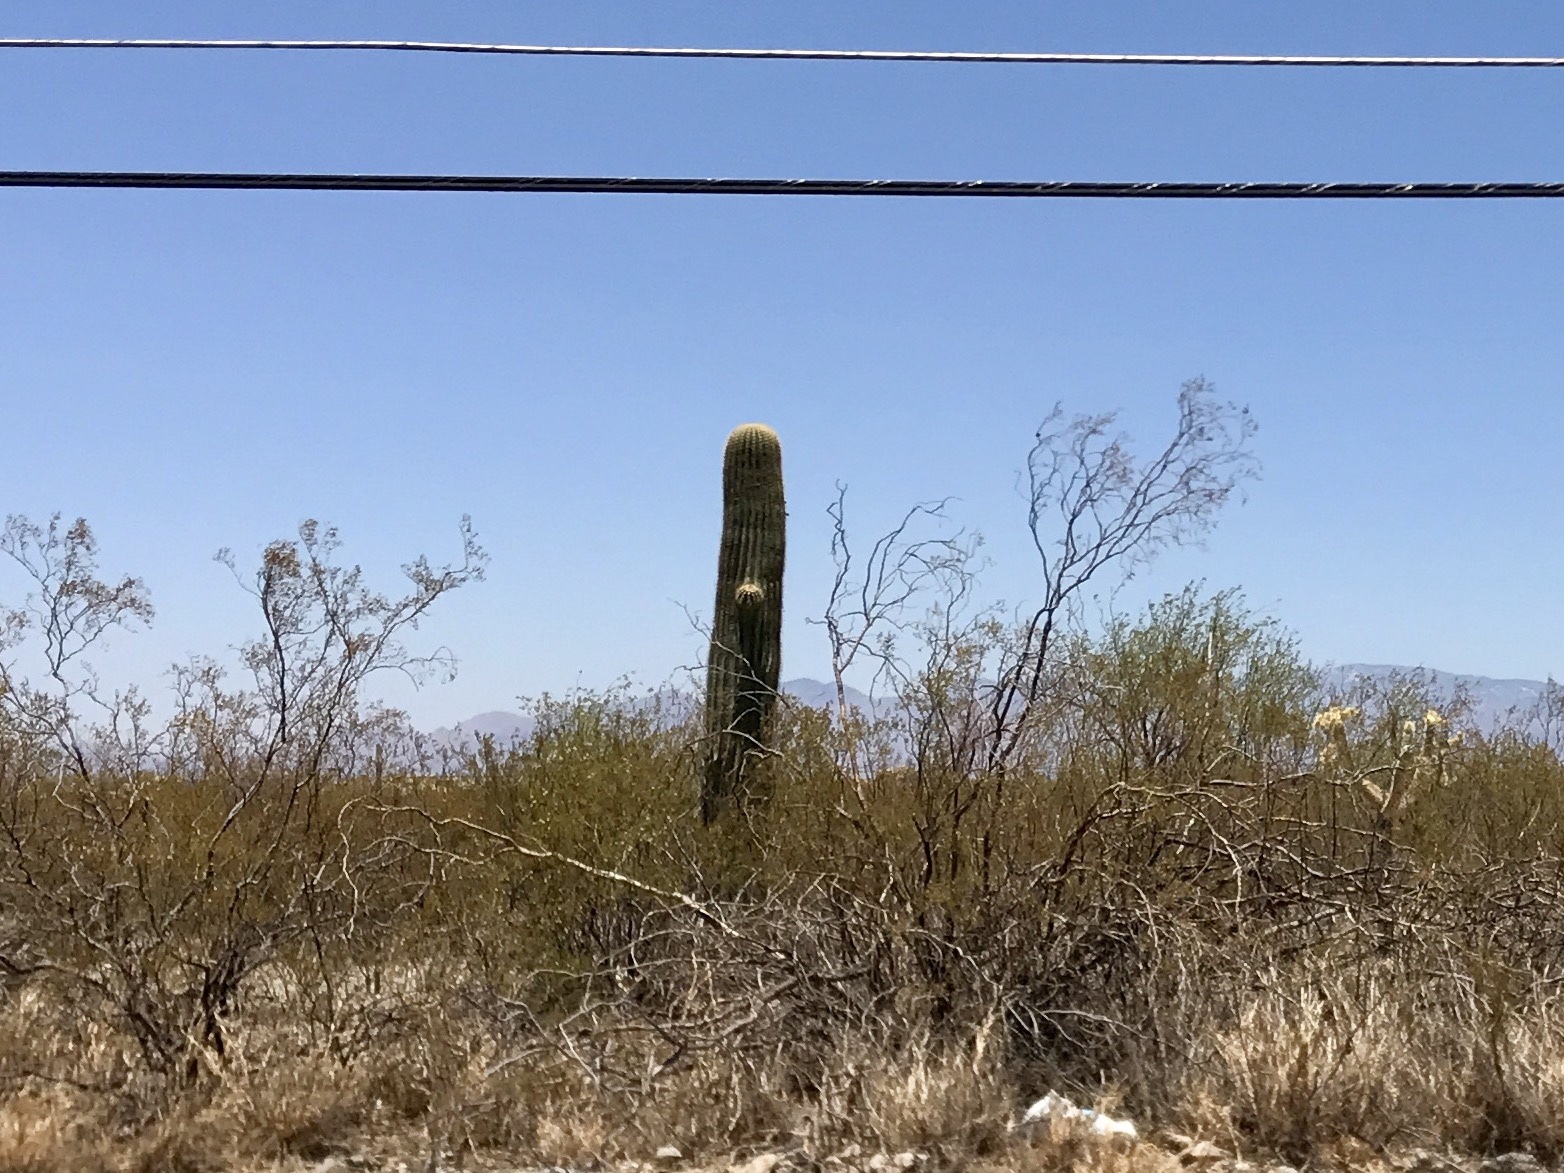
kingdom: Plantae
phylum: Tracheophyta
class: Magnoliopsida
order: Caryophyllales
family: Cactaceae
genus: Carnegiea
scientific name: Carnegiea gigantea
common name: Saguaro
